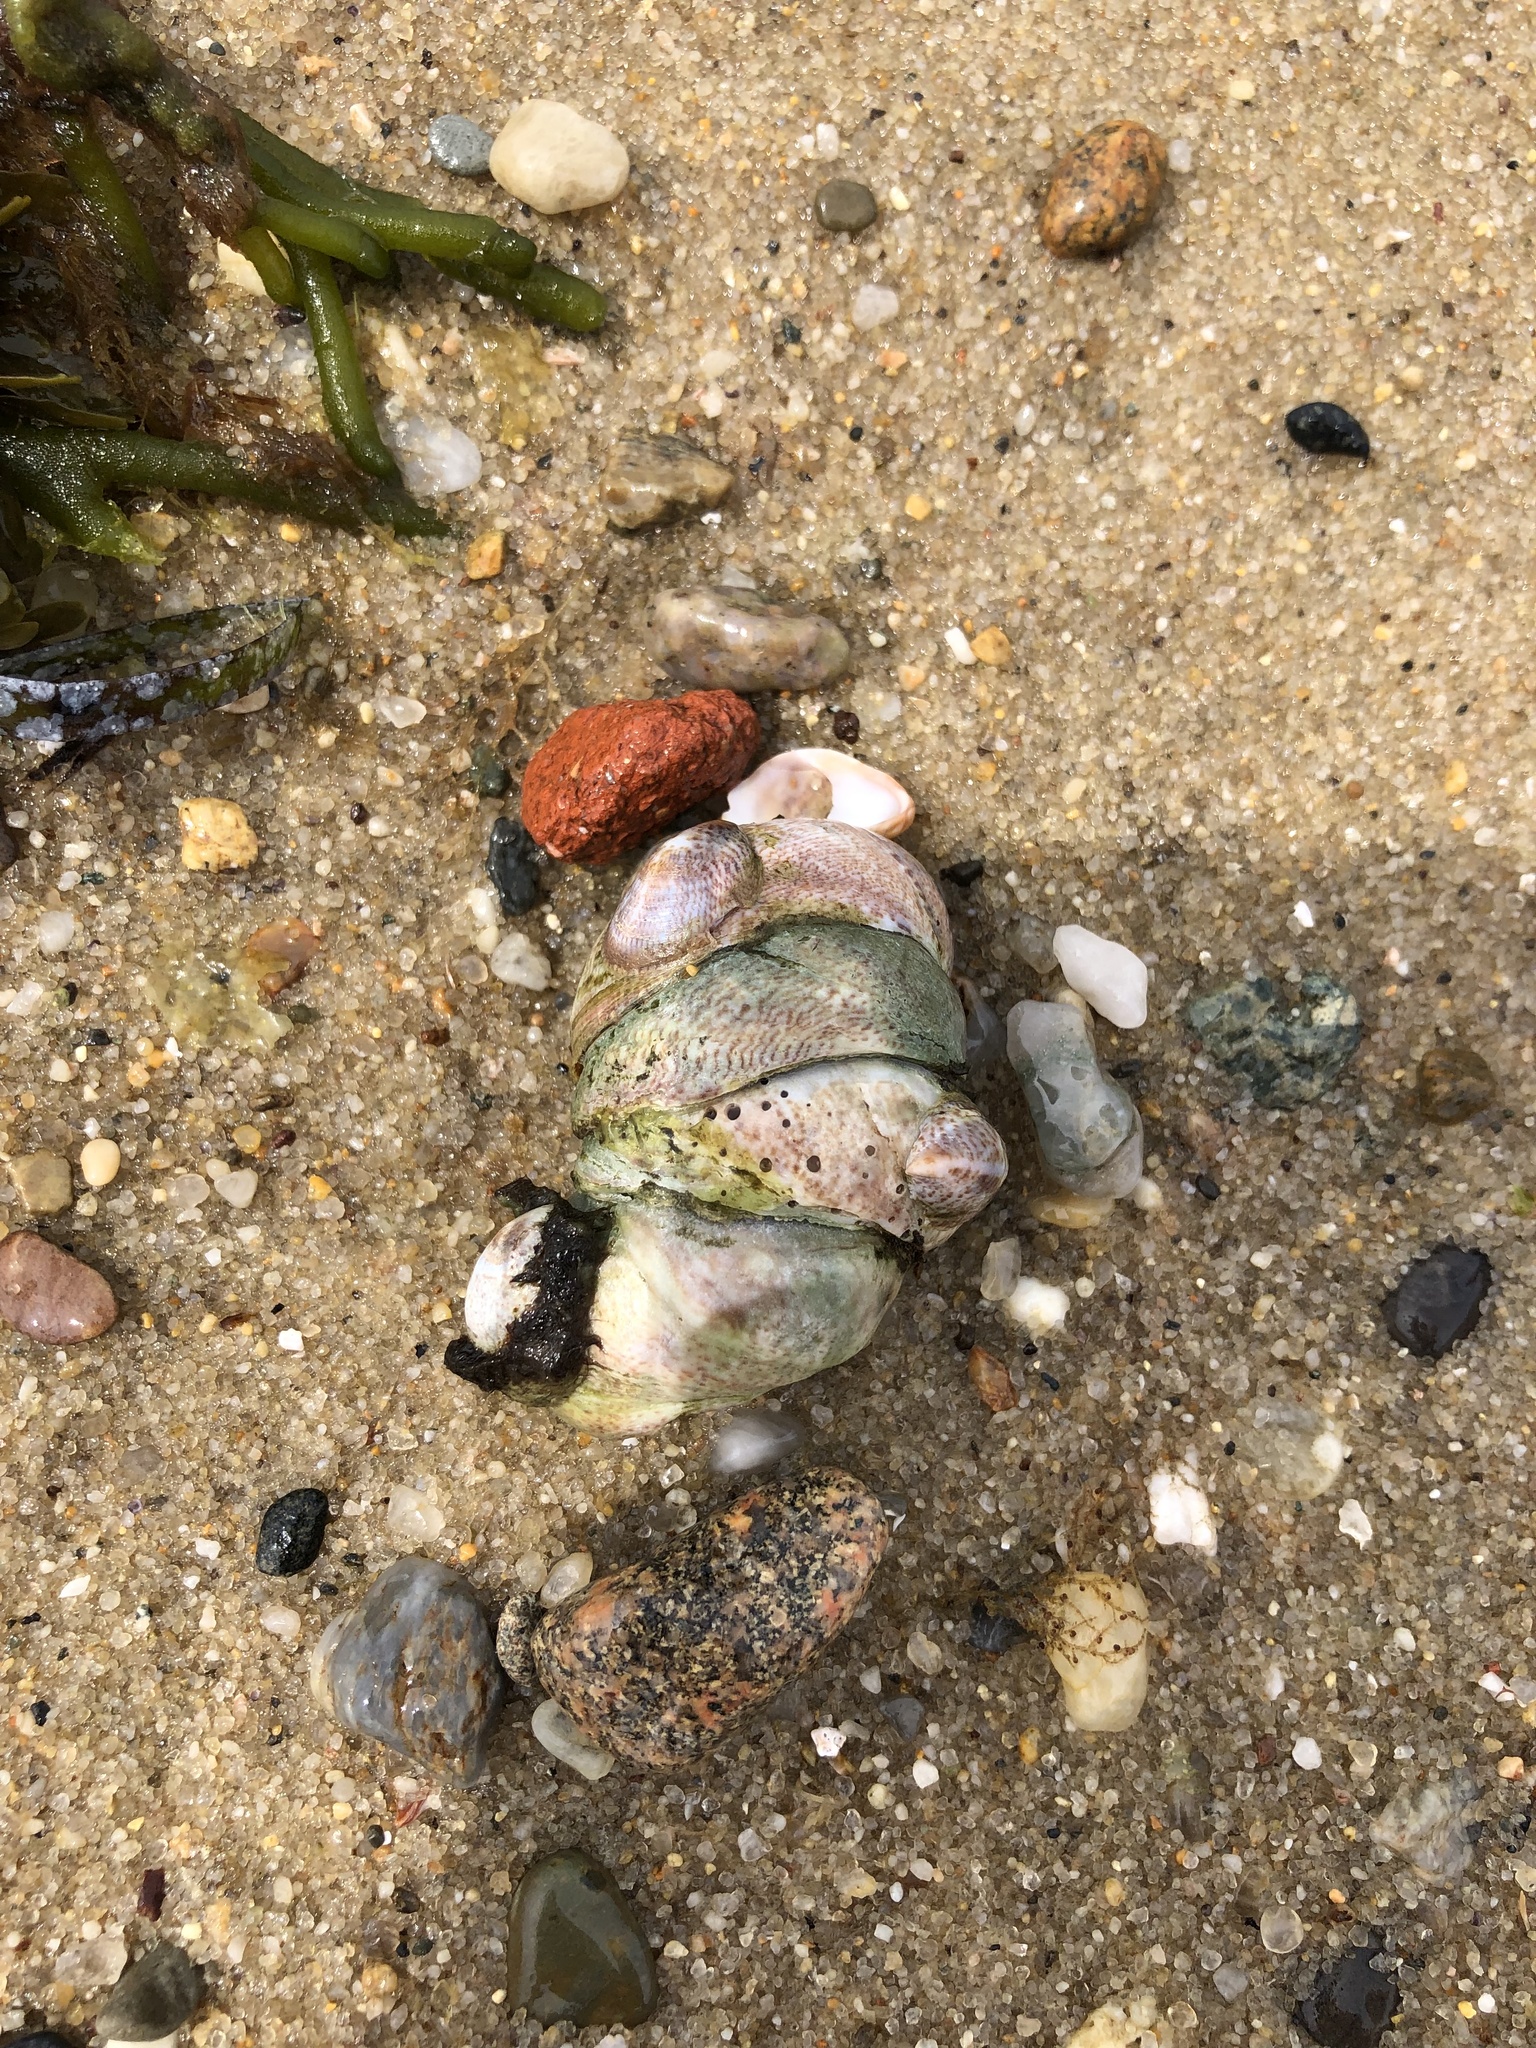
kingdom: Animalia
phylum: Mollusca
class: Gastropoda
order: Littorinimorpha
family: Calyptraeidae
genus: Crepidula
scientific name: Crepidula fornicata
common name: Slipper limpet
